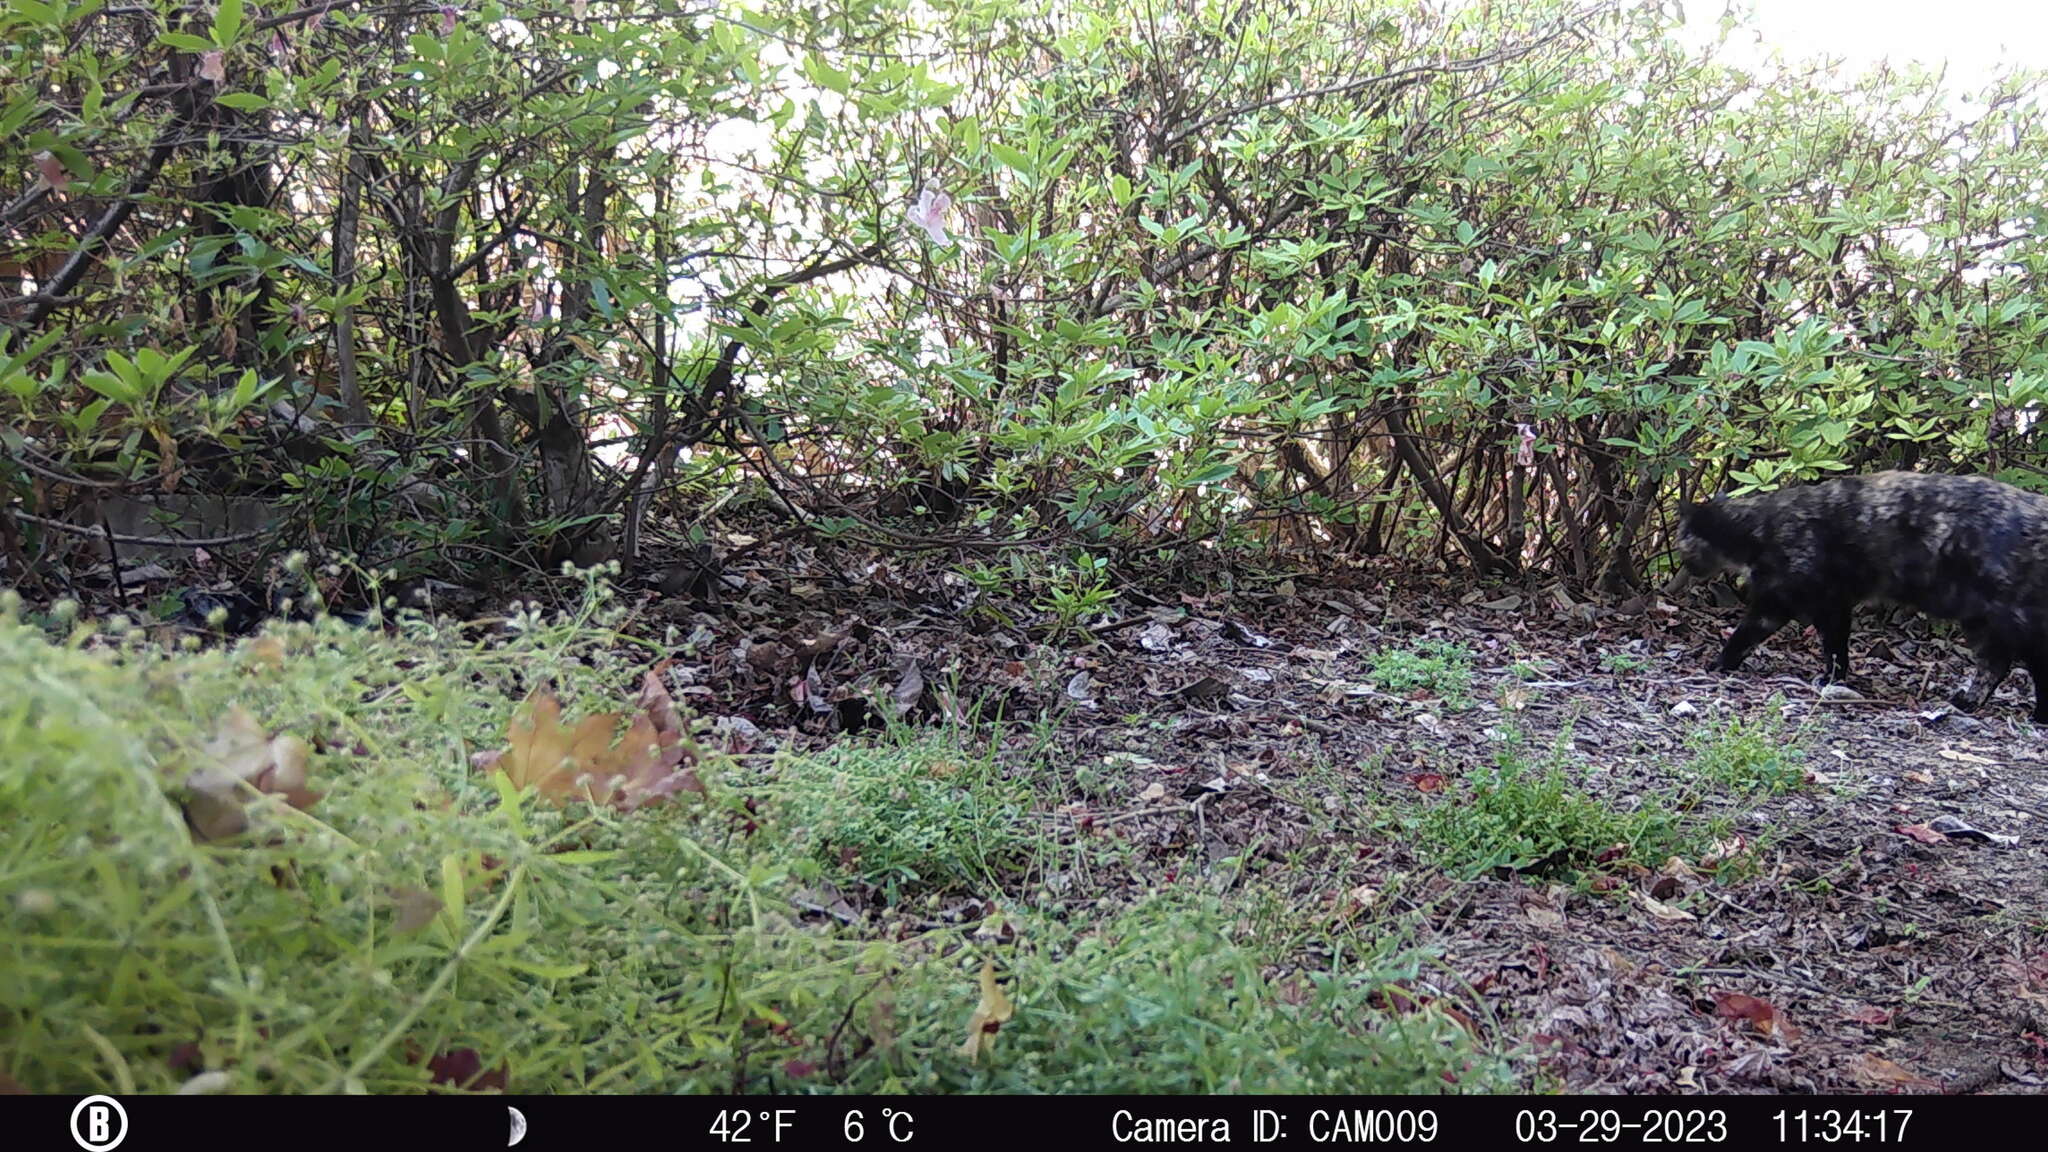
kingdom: Animalia
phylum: Chordata
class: Mammalia
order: Carnivora
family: Felidae
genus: Felis
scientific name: Felis catus
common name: Domestic cat
